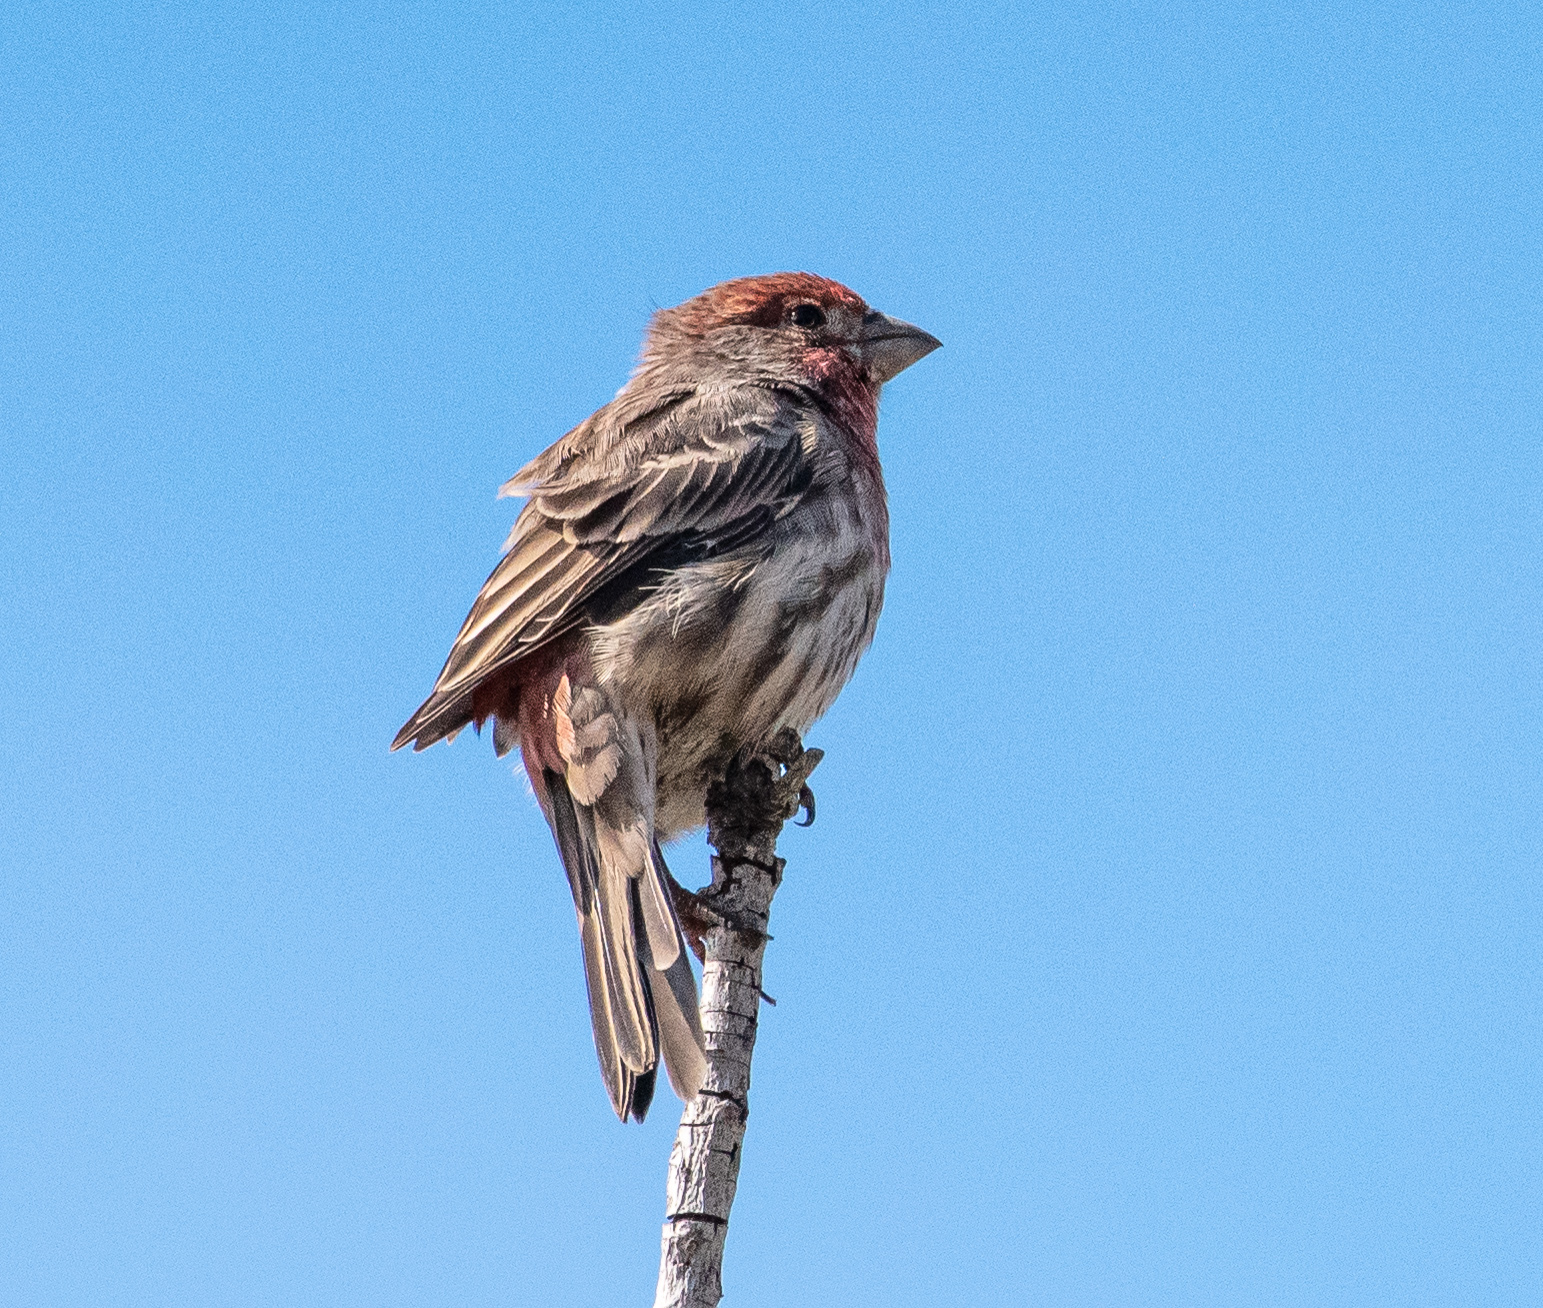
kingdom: Animalia
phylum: Chordata
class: Aves
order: Passeriformes
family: Fringillidae
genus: Haemorhous
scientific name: Haemorhous mexicanus
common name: House finch
